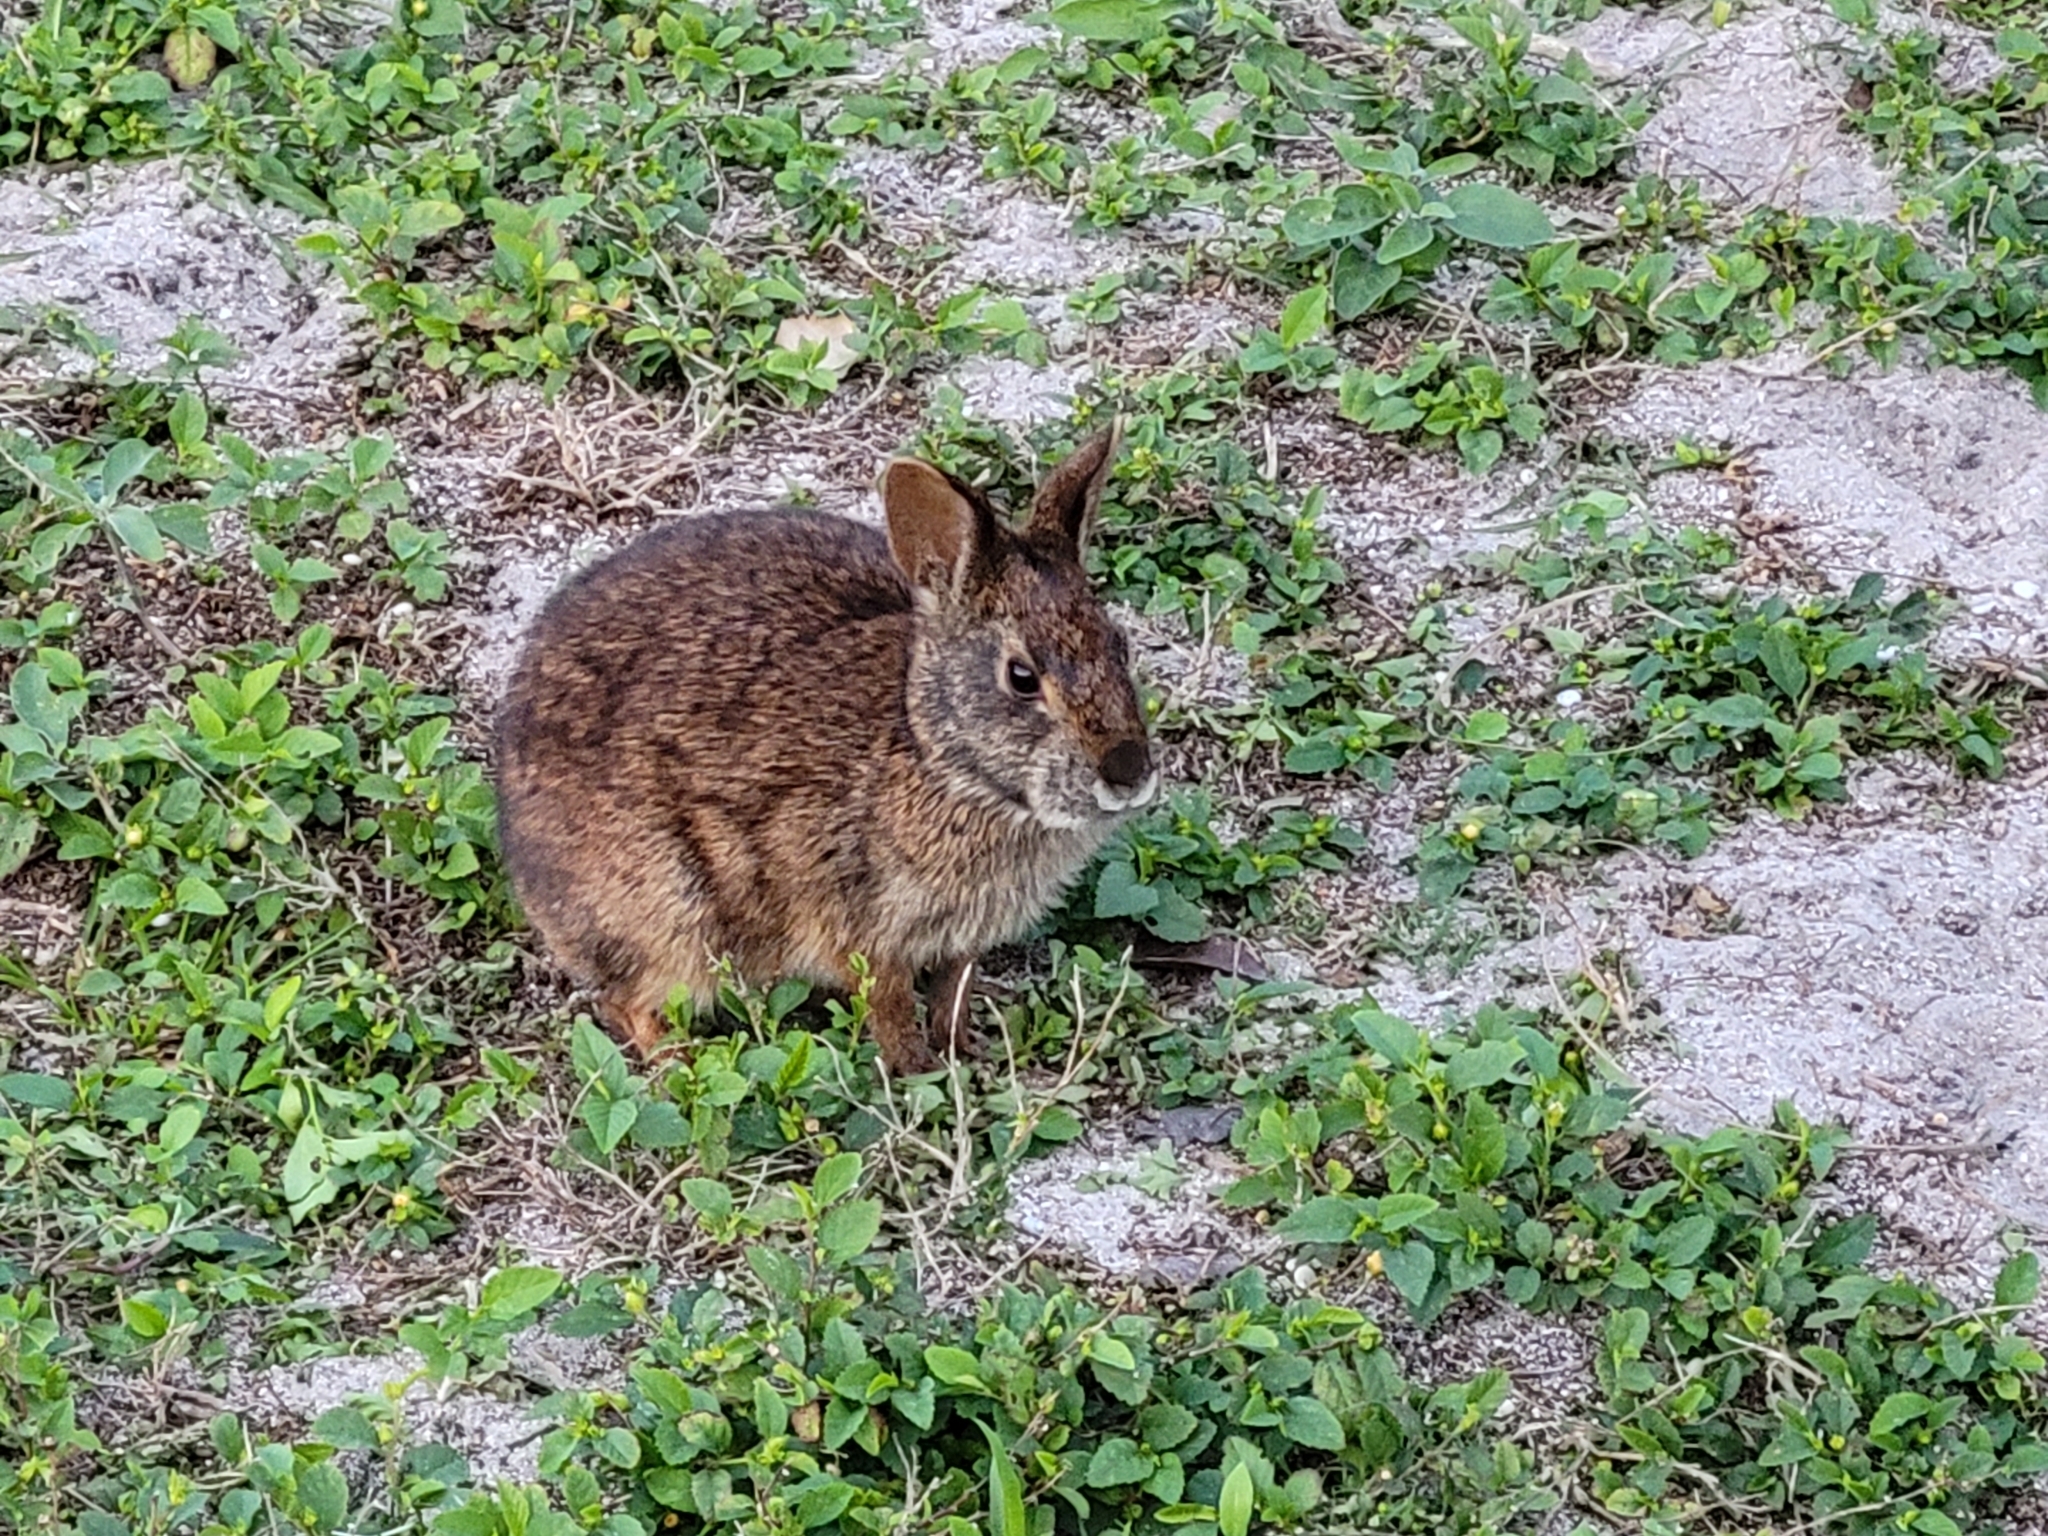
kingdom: Animalia
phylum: Chordata
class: Mammalia
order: Lagomorpha
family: Leporidae
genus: Sylvilagus
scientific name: Sylvilagus palustris
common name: Marsh rabbit
